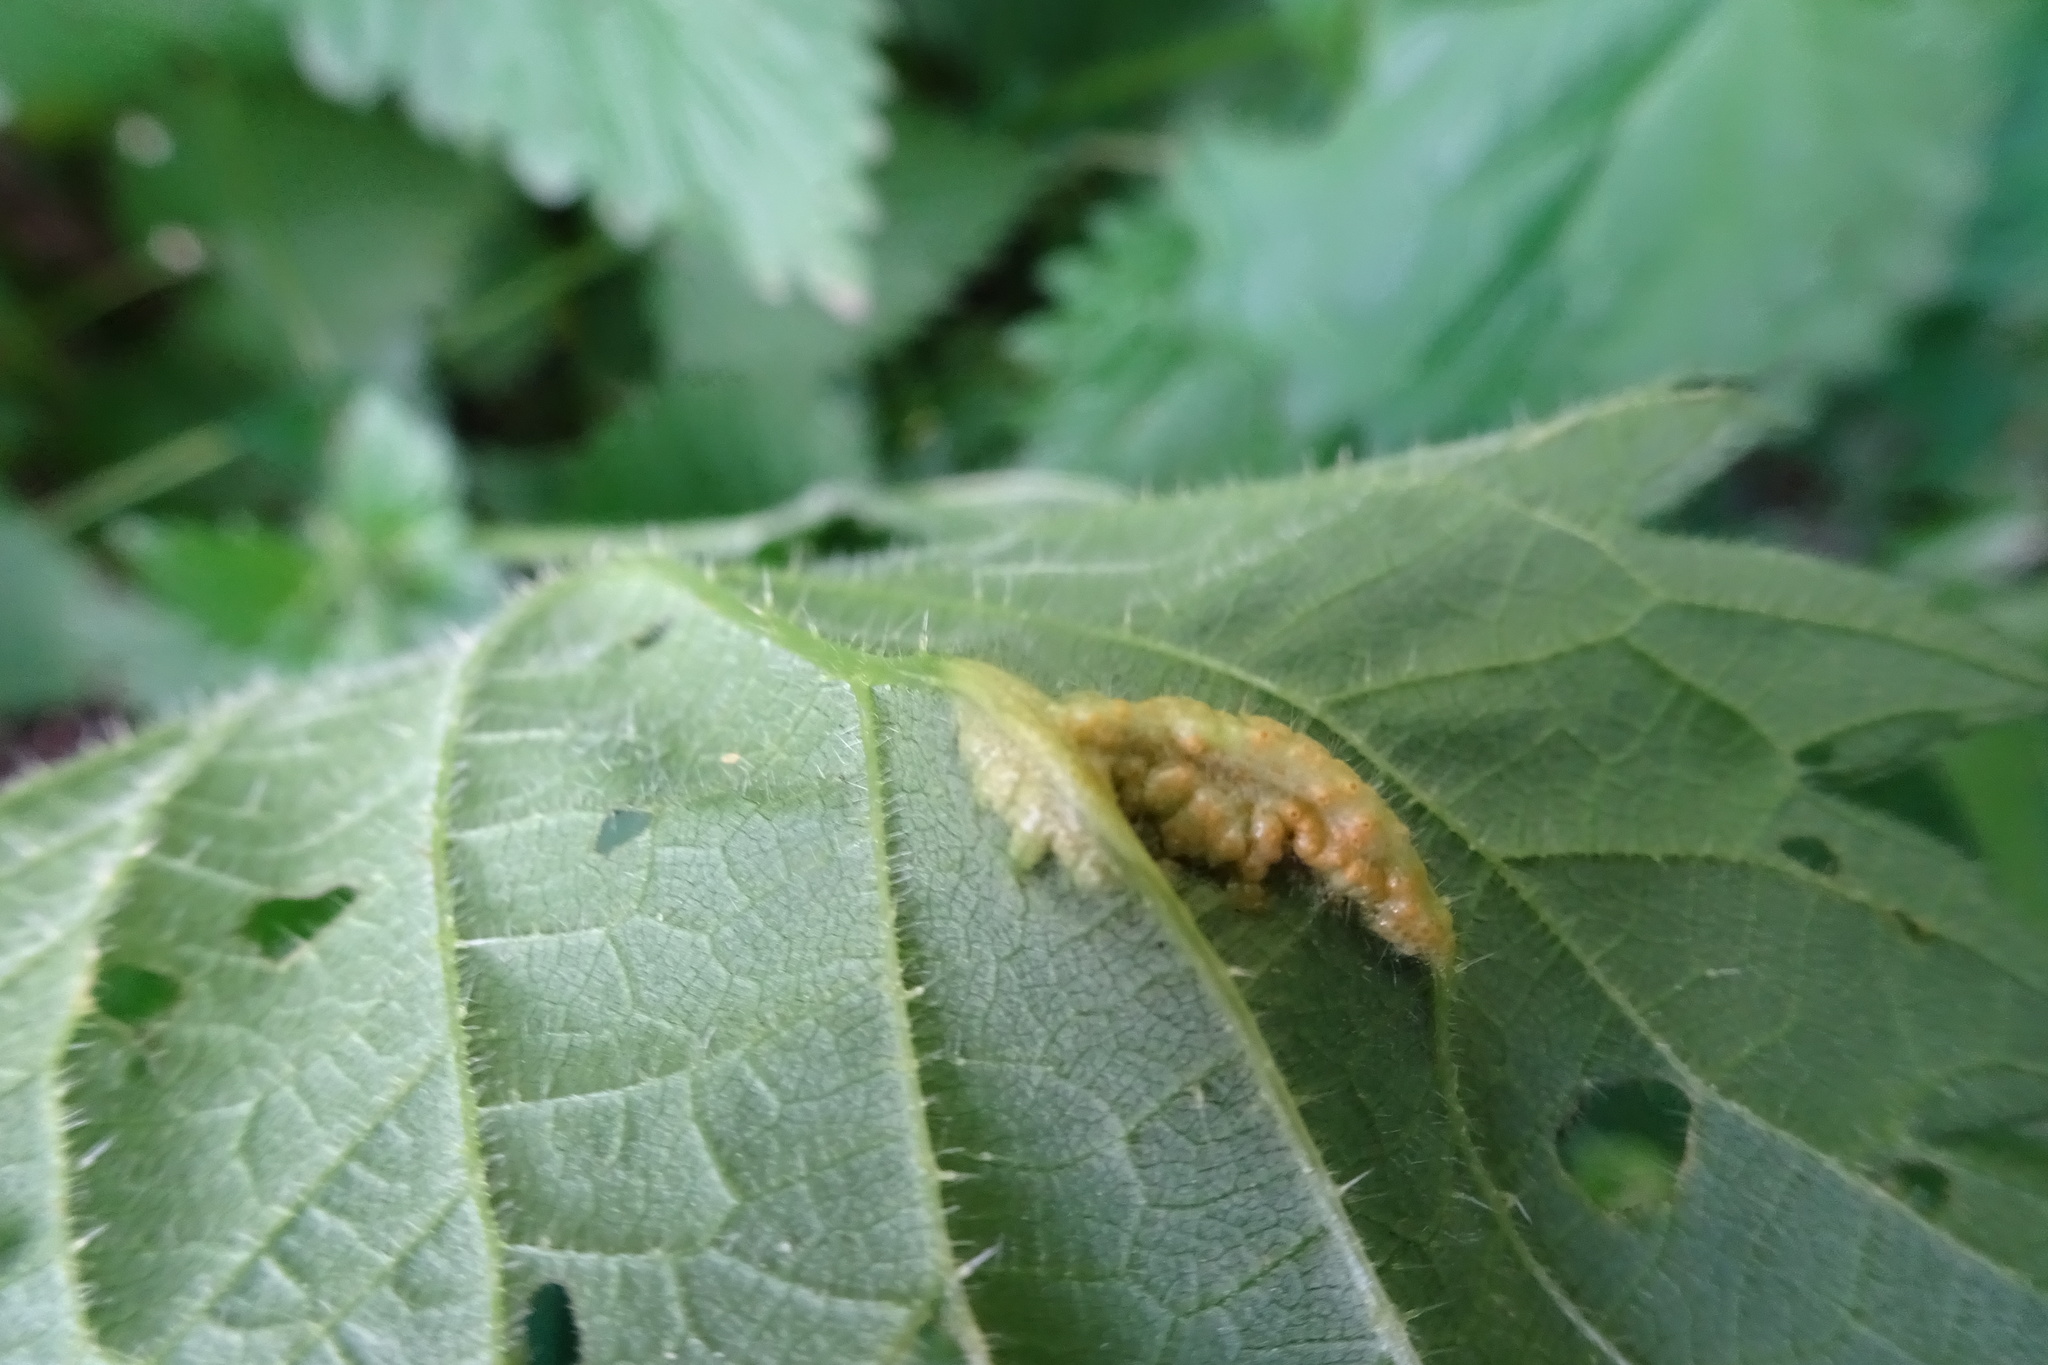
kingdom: Fungi
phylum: Basidiomycota
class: Pucciniomycetes
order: Pucciniales
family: Pucciniaceae
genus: Puccinia
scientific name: Puccinia urticata
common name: Nettle clustercup rust fungus
